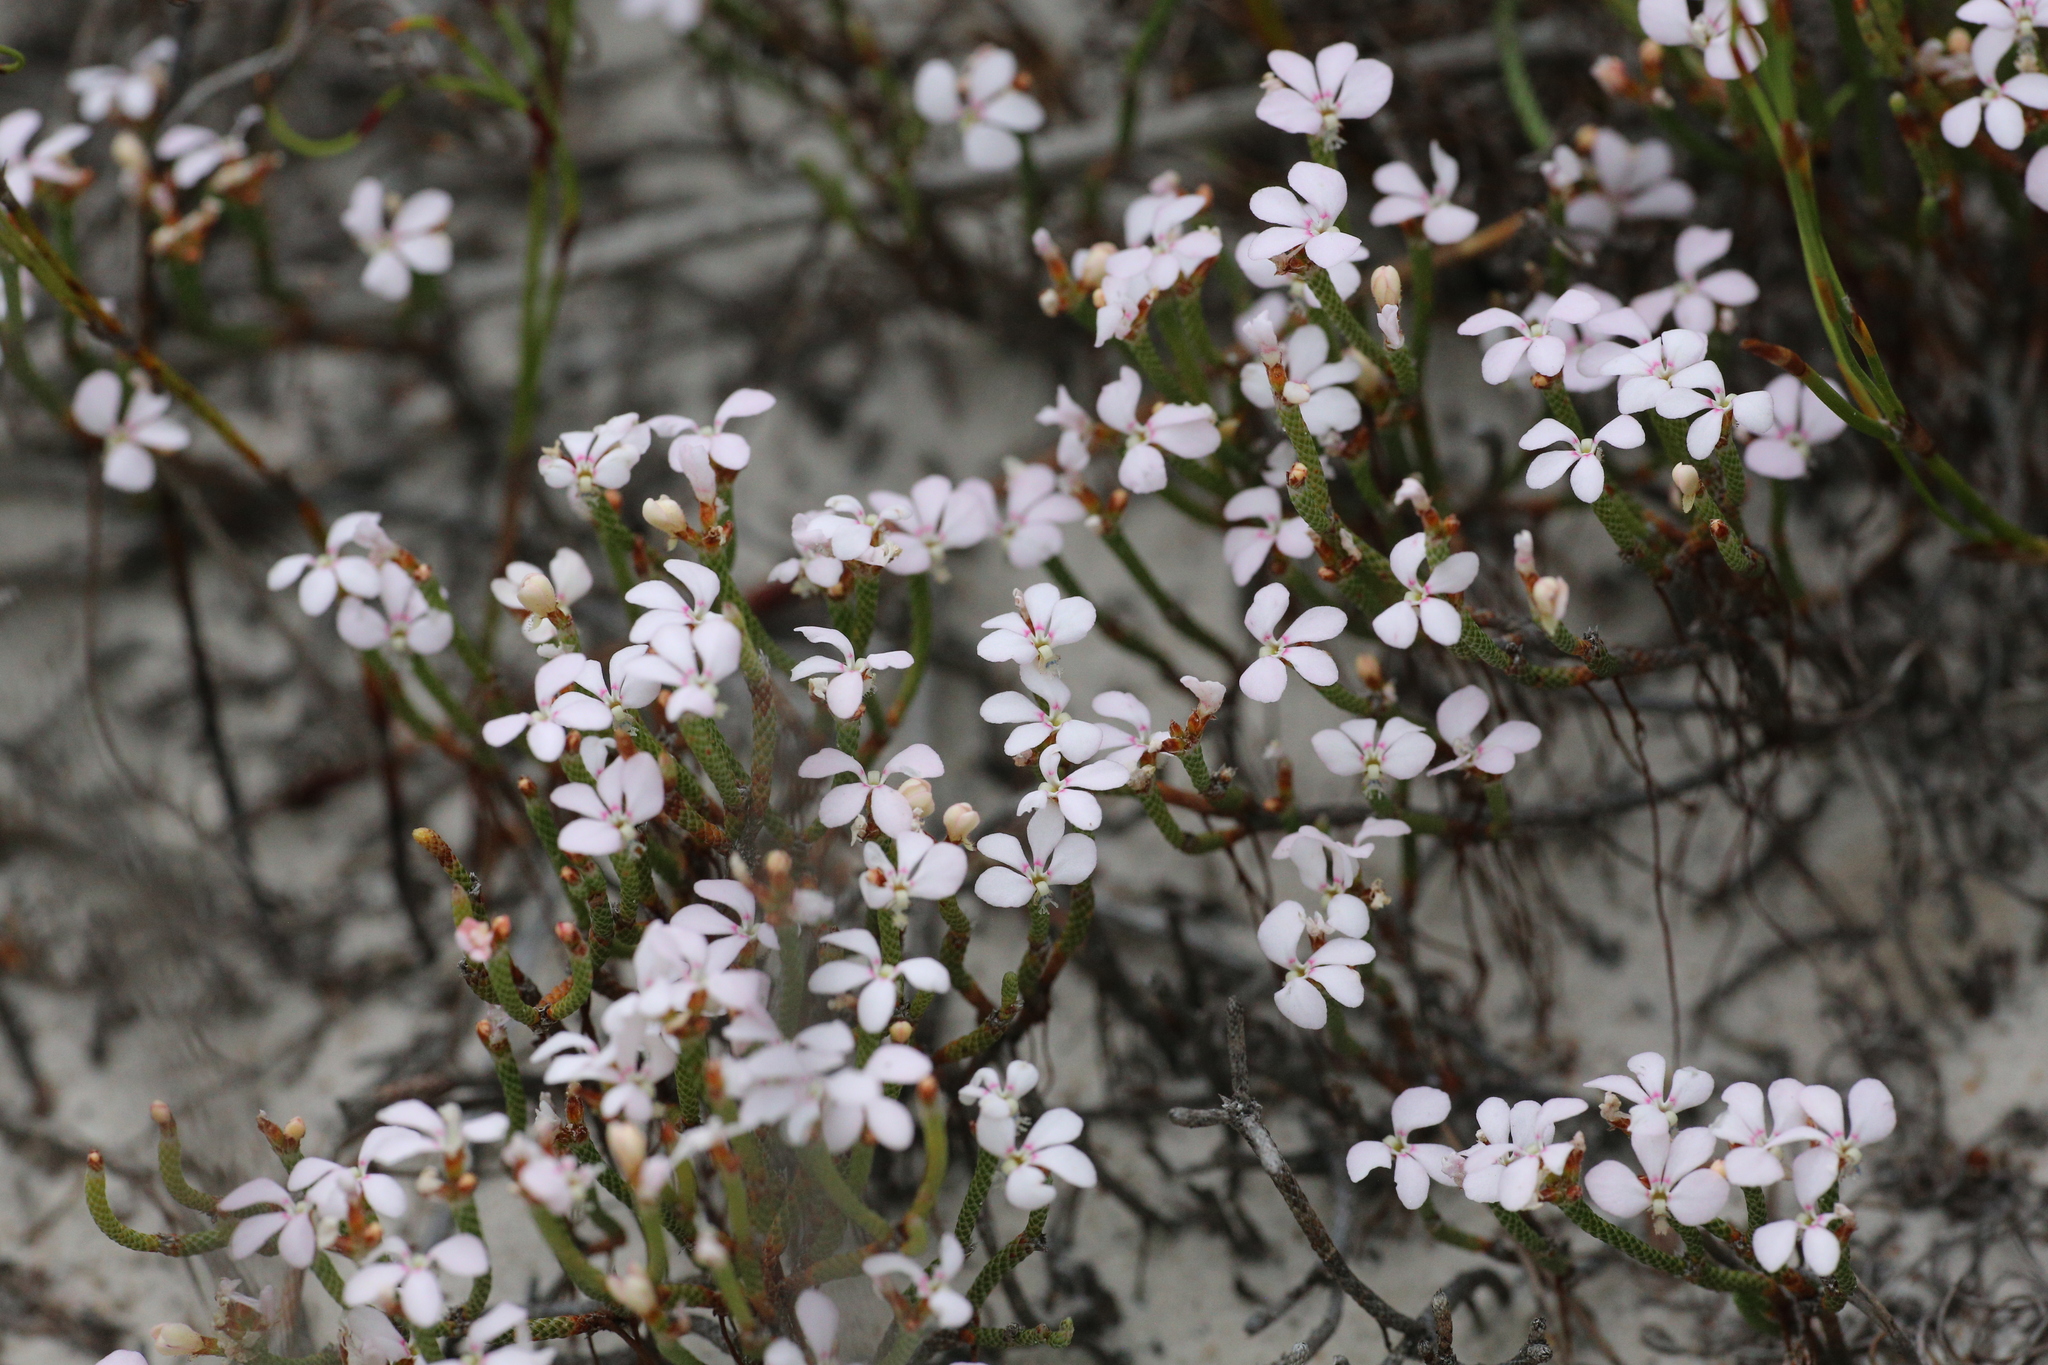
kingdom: Plantae
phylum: Tracheophyta
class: Magnoliopsida
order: Asterales
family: Stylidiaceae
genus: Stylidium
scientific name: Stylidium preissii
